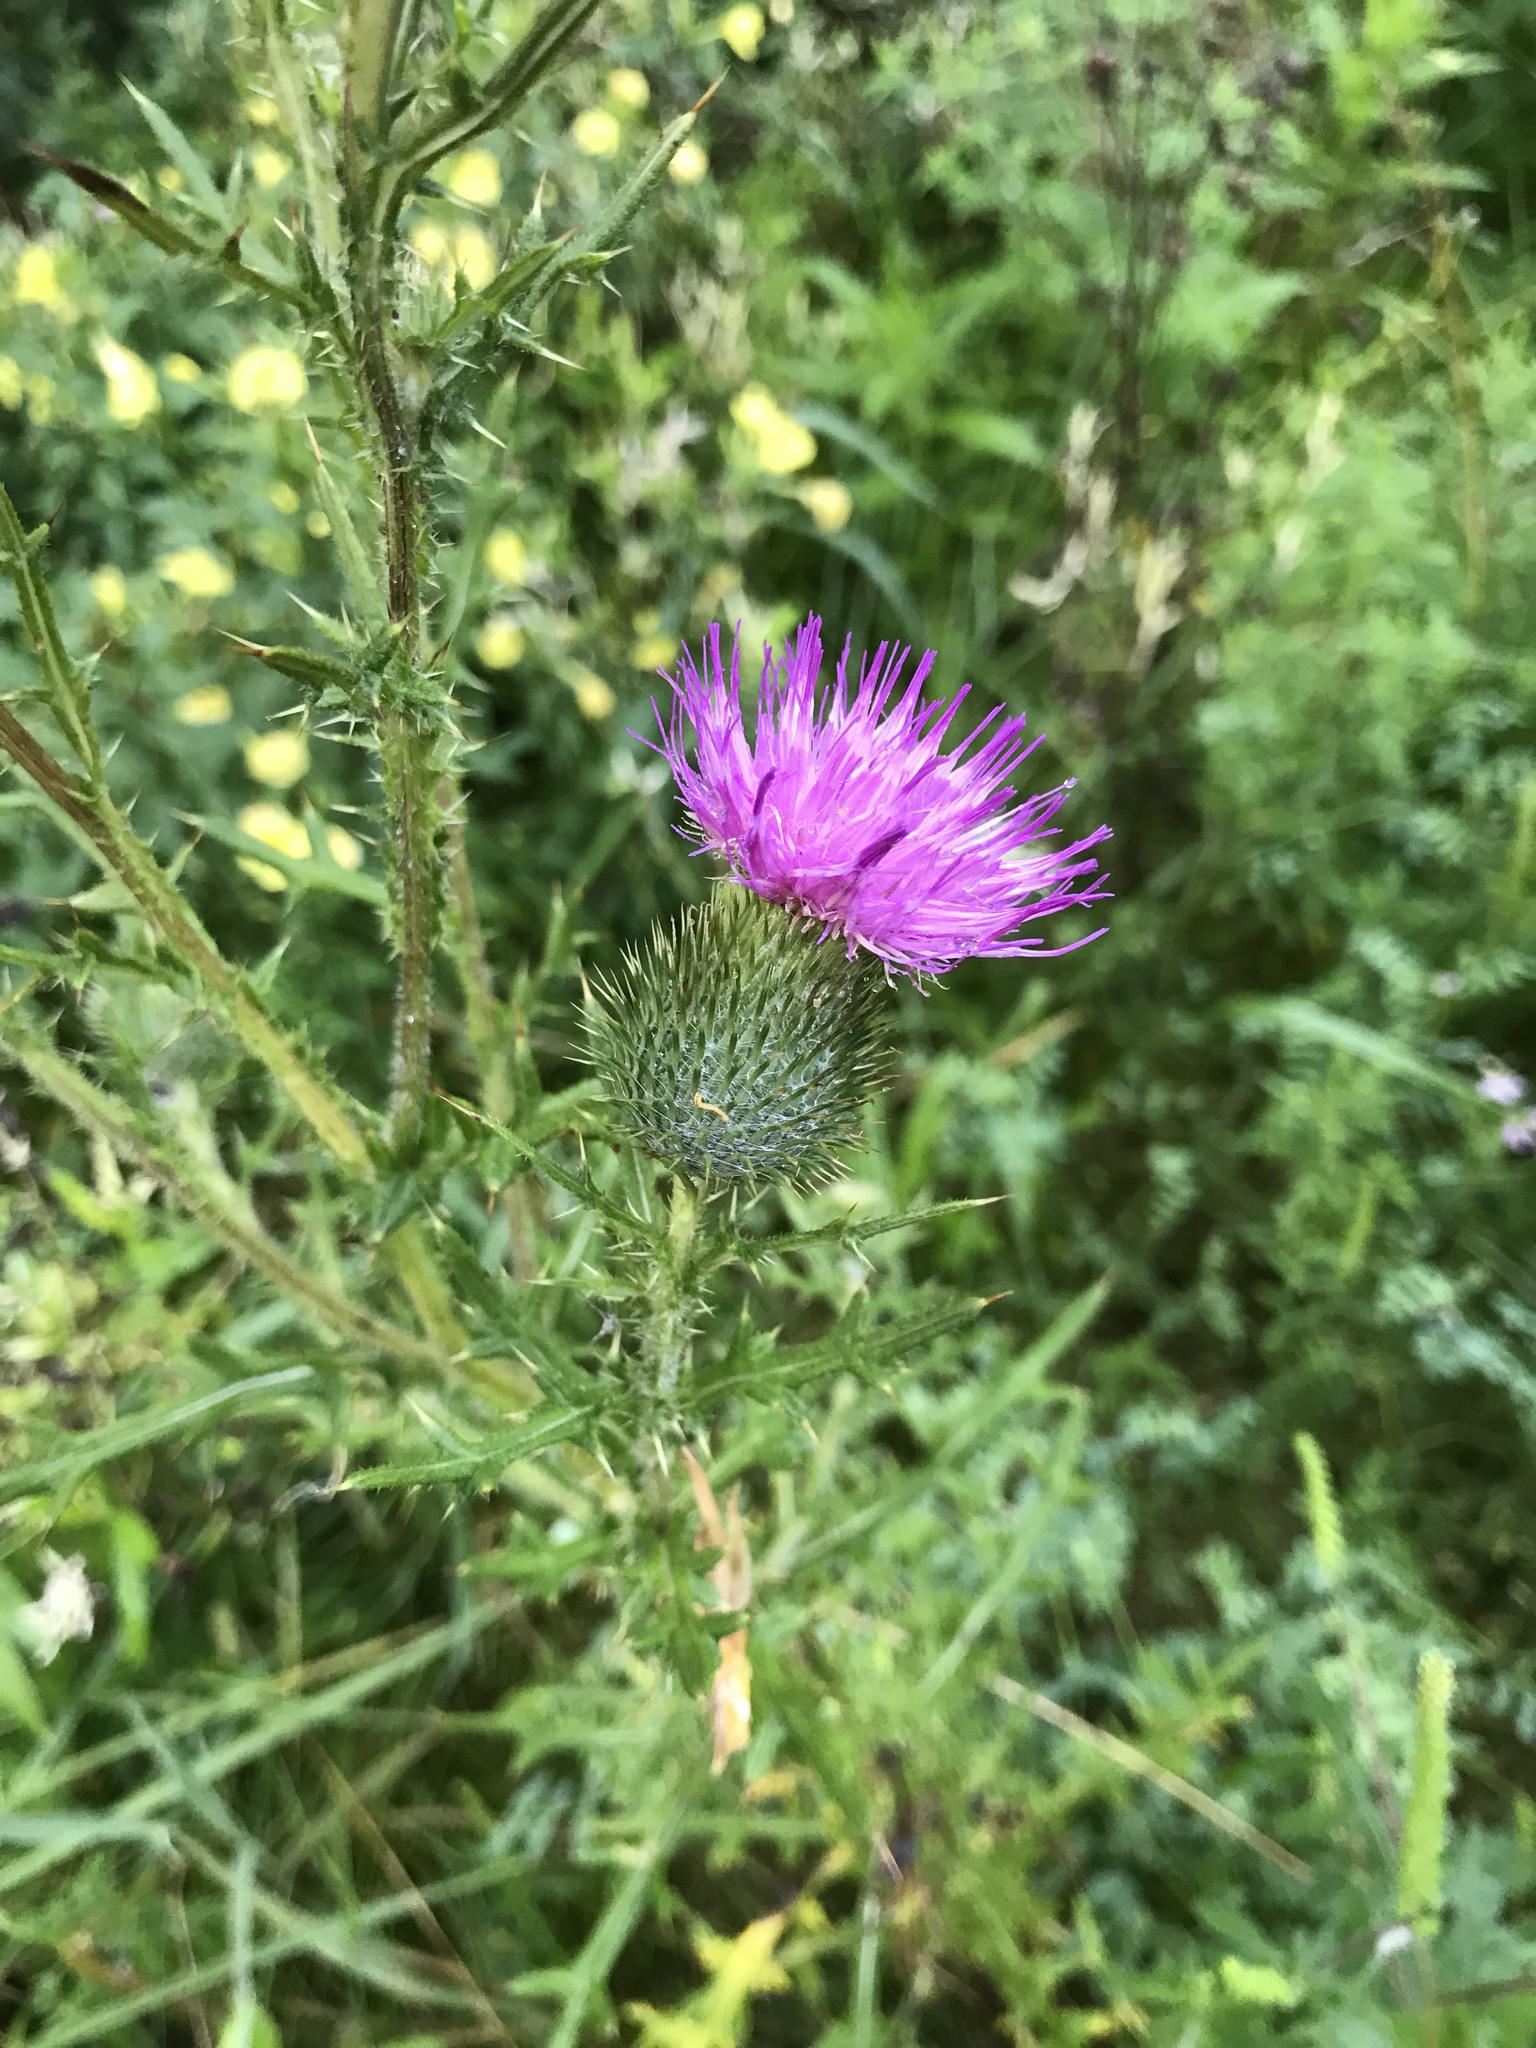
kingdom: Plantae
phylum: Tracheophyta
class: Magnoliopsida
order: Asterales
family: Asteraceae
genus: Cirsium
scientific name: Cirsium vulgare
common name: Bull thistle
